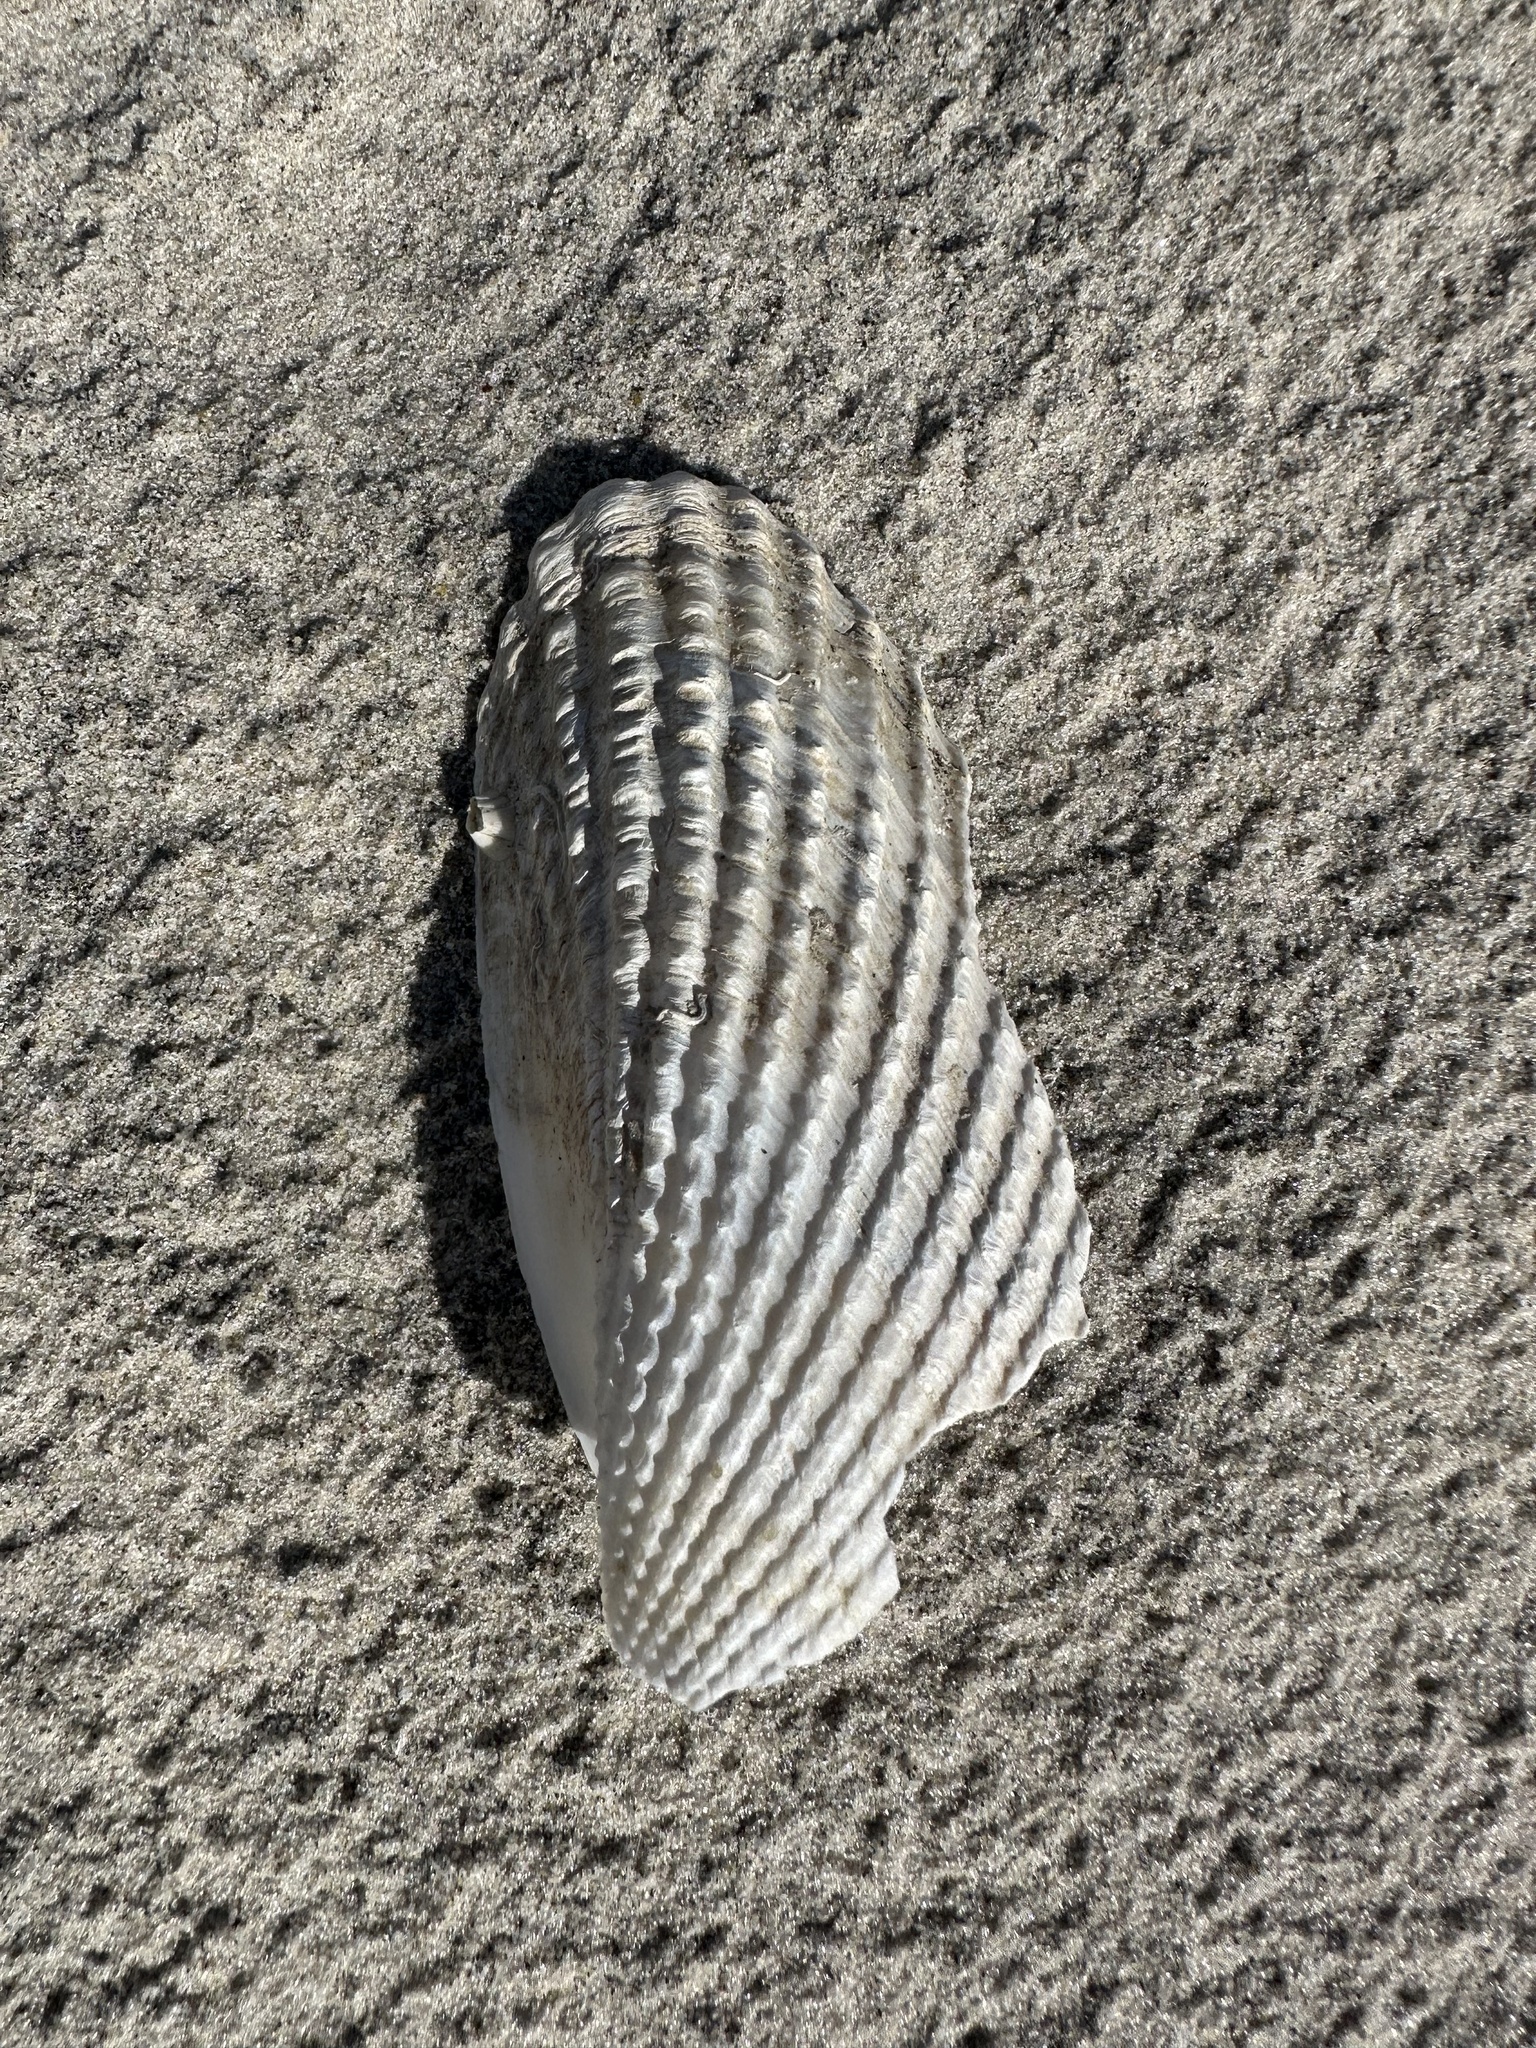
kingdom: Animalia
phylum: Mollusca
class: Bivalvia
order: Myida
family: Pholadidae
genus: Cyrtopleura
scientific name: Cyrtopleura costata
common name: Angel wing
